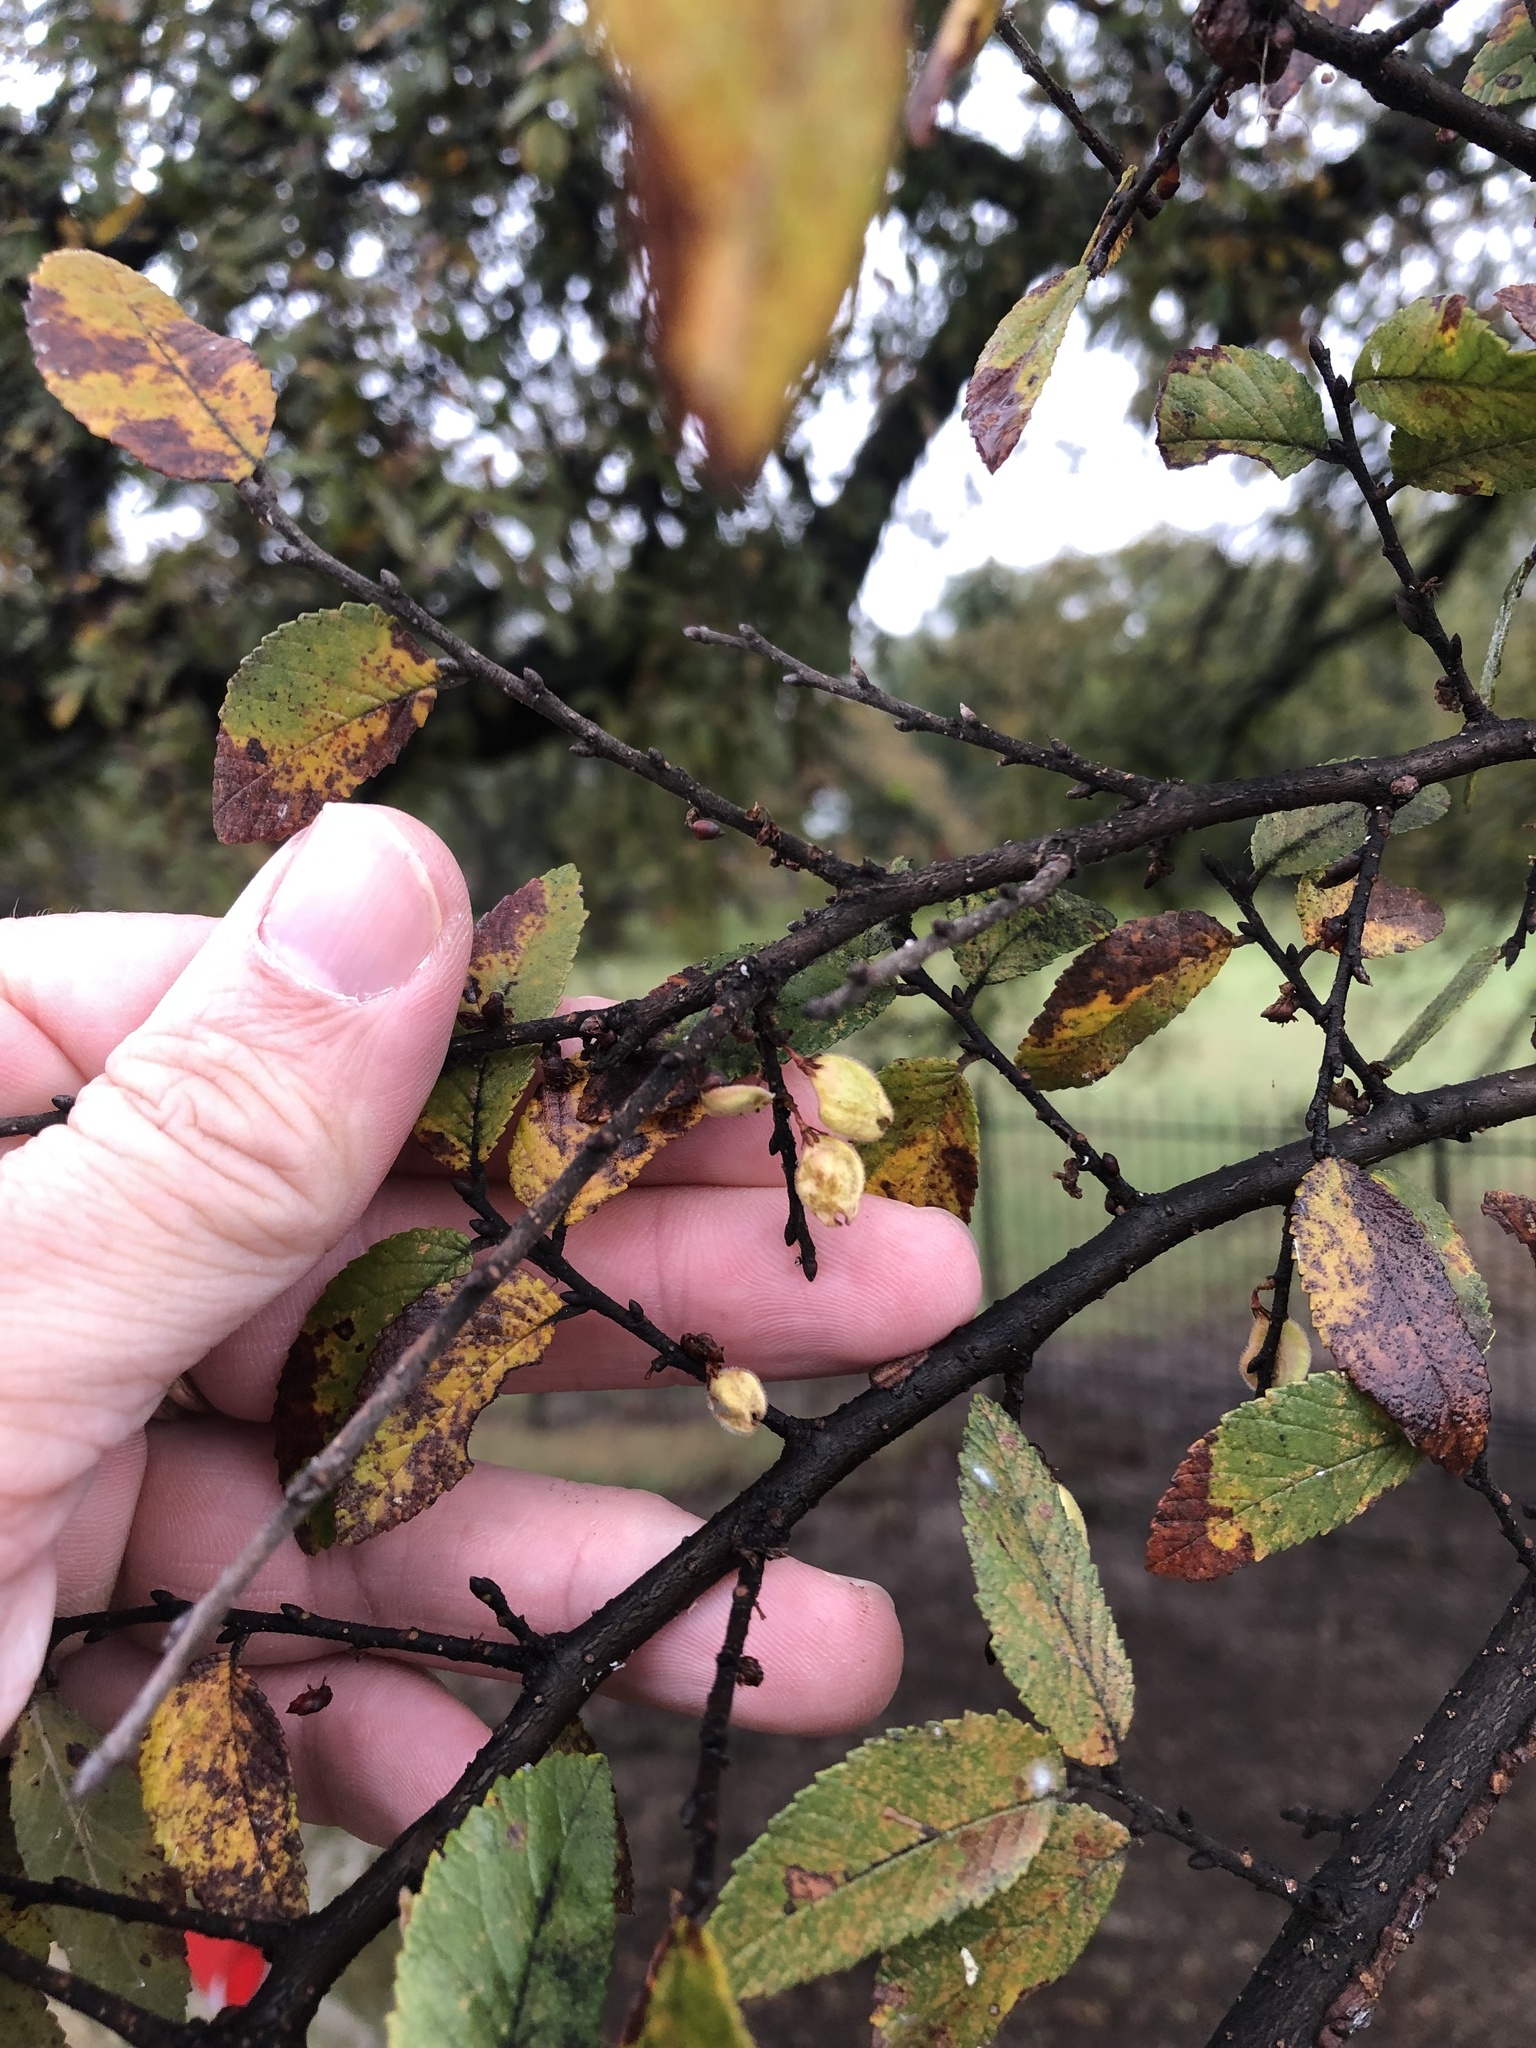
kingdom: Plantae
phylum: Tracheophyta
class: Magnoliopsida
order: Rosales
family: Ulmaceae
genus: Ulmus
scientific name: Ulmus crassifolia
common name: Basket elm
